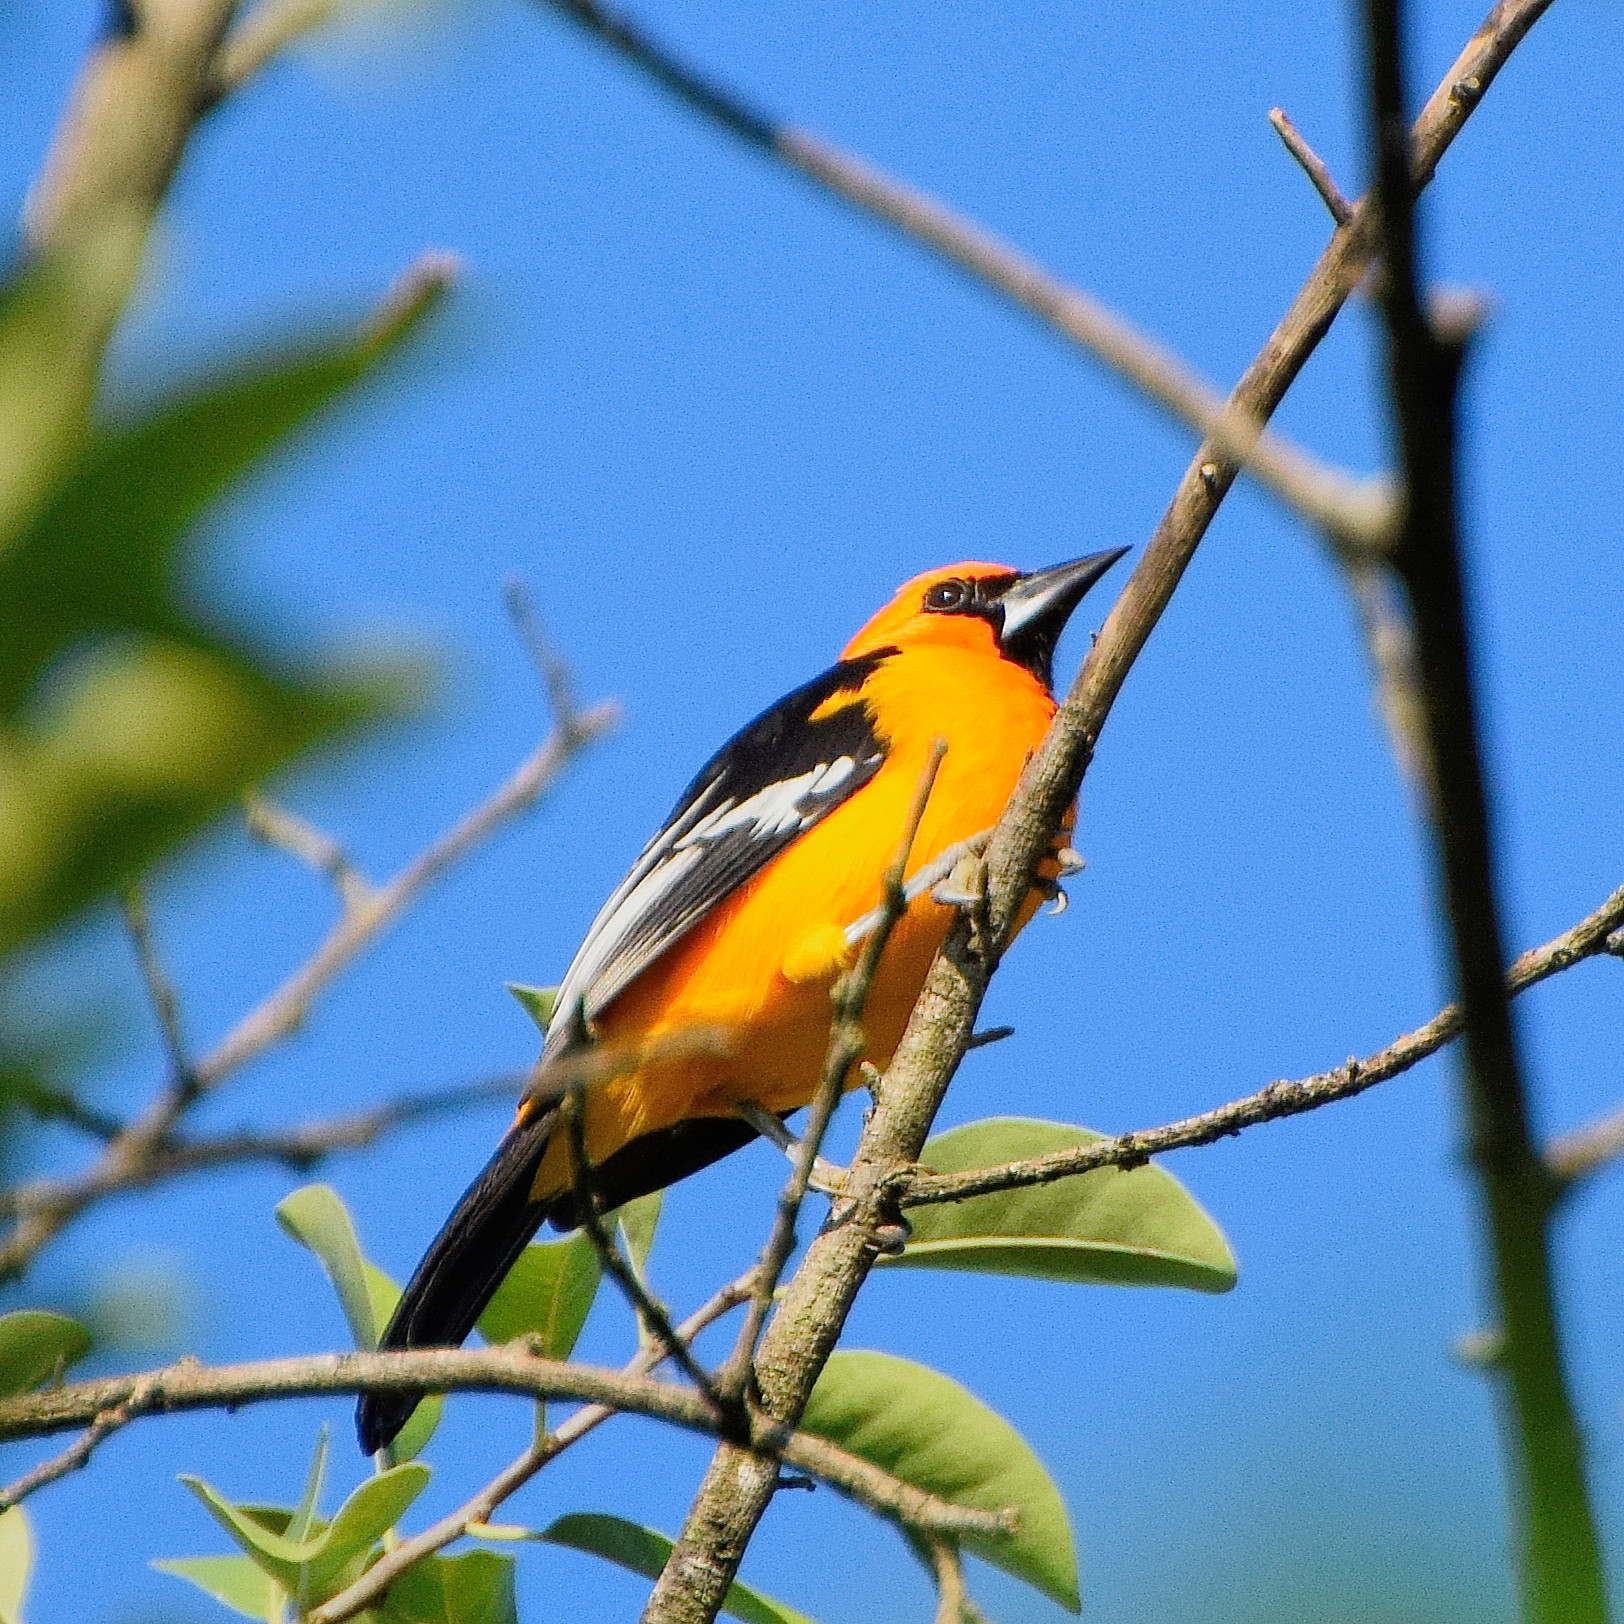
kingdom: Animalia
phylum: Chordata
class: Aves
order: Passeriformes
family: Icteridae
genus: Icterus
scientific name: Icterus gularis
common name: Altamira oriole
